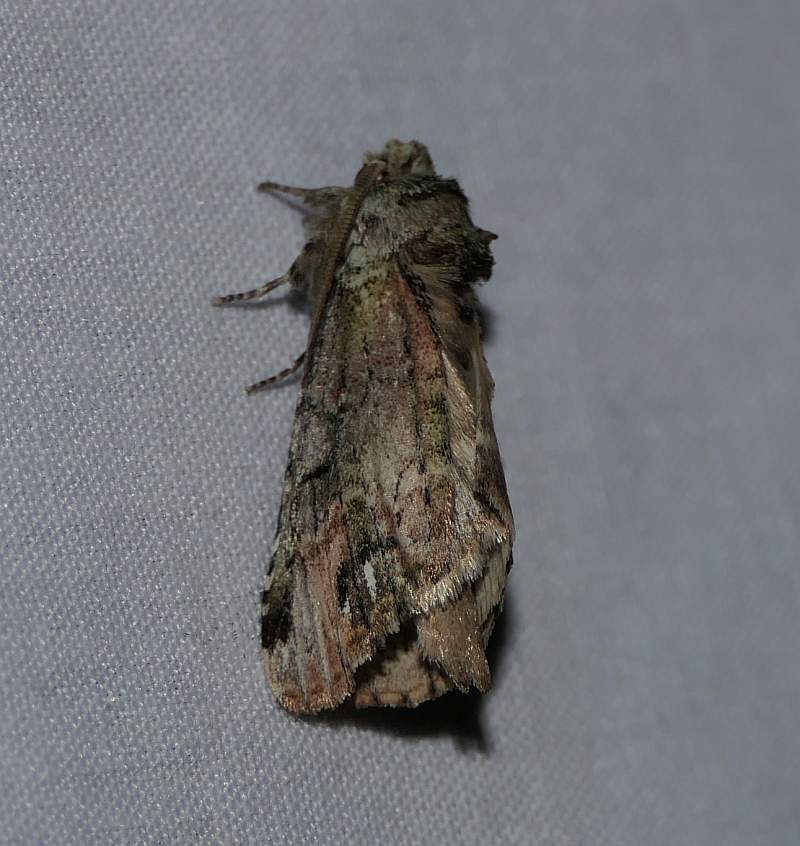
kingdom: Animalia
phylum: Arthropoda
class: Insecta
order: Lepidoptera
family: Notodontidae
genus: Schizura
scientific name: Schizura
